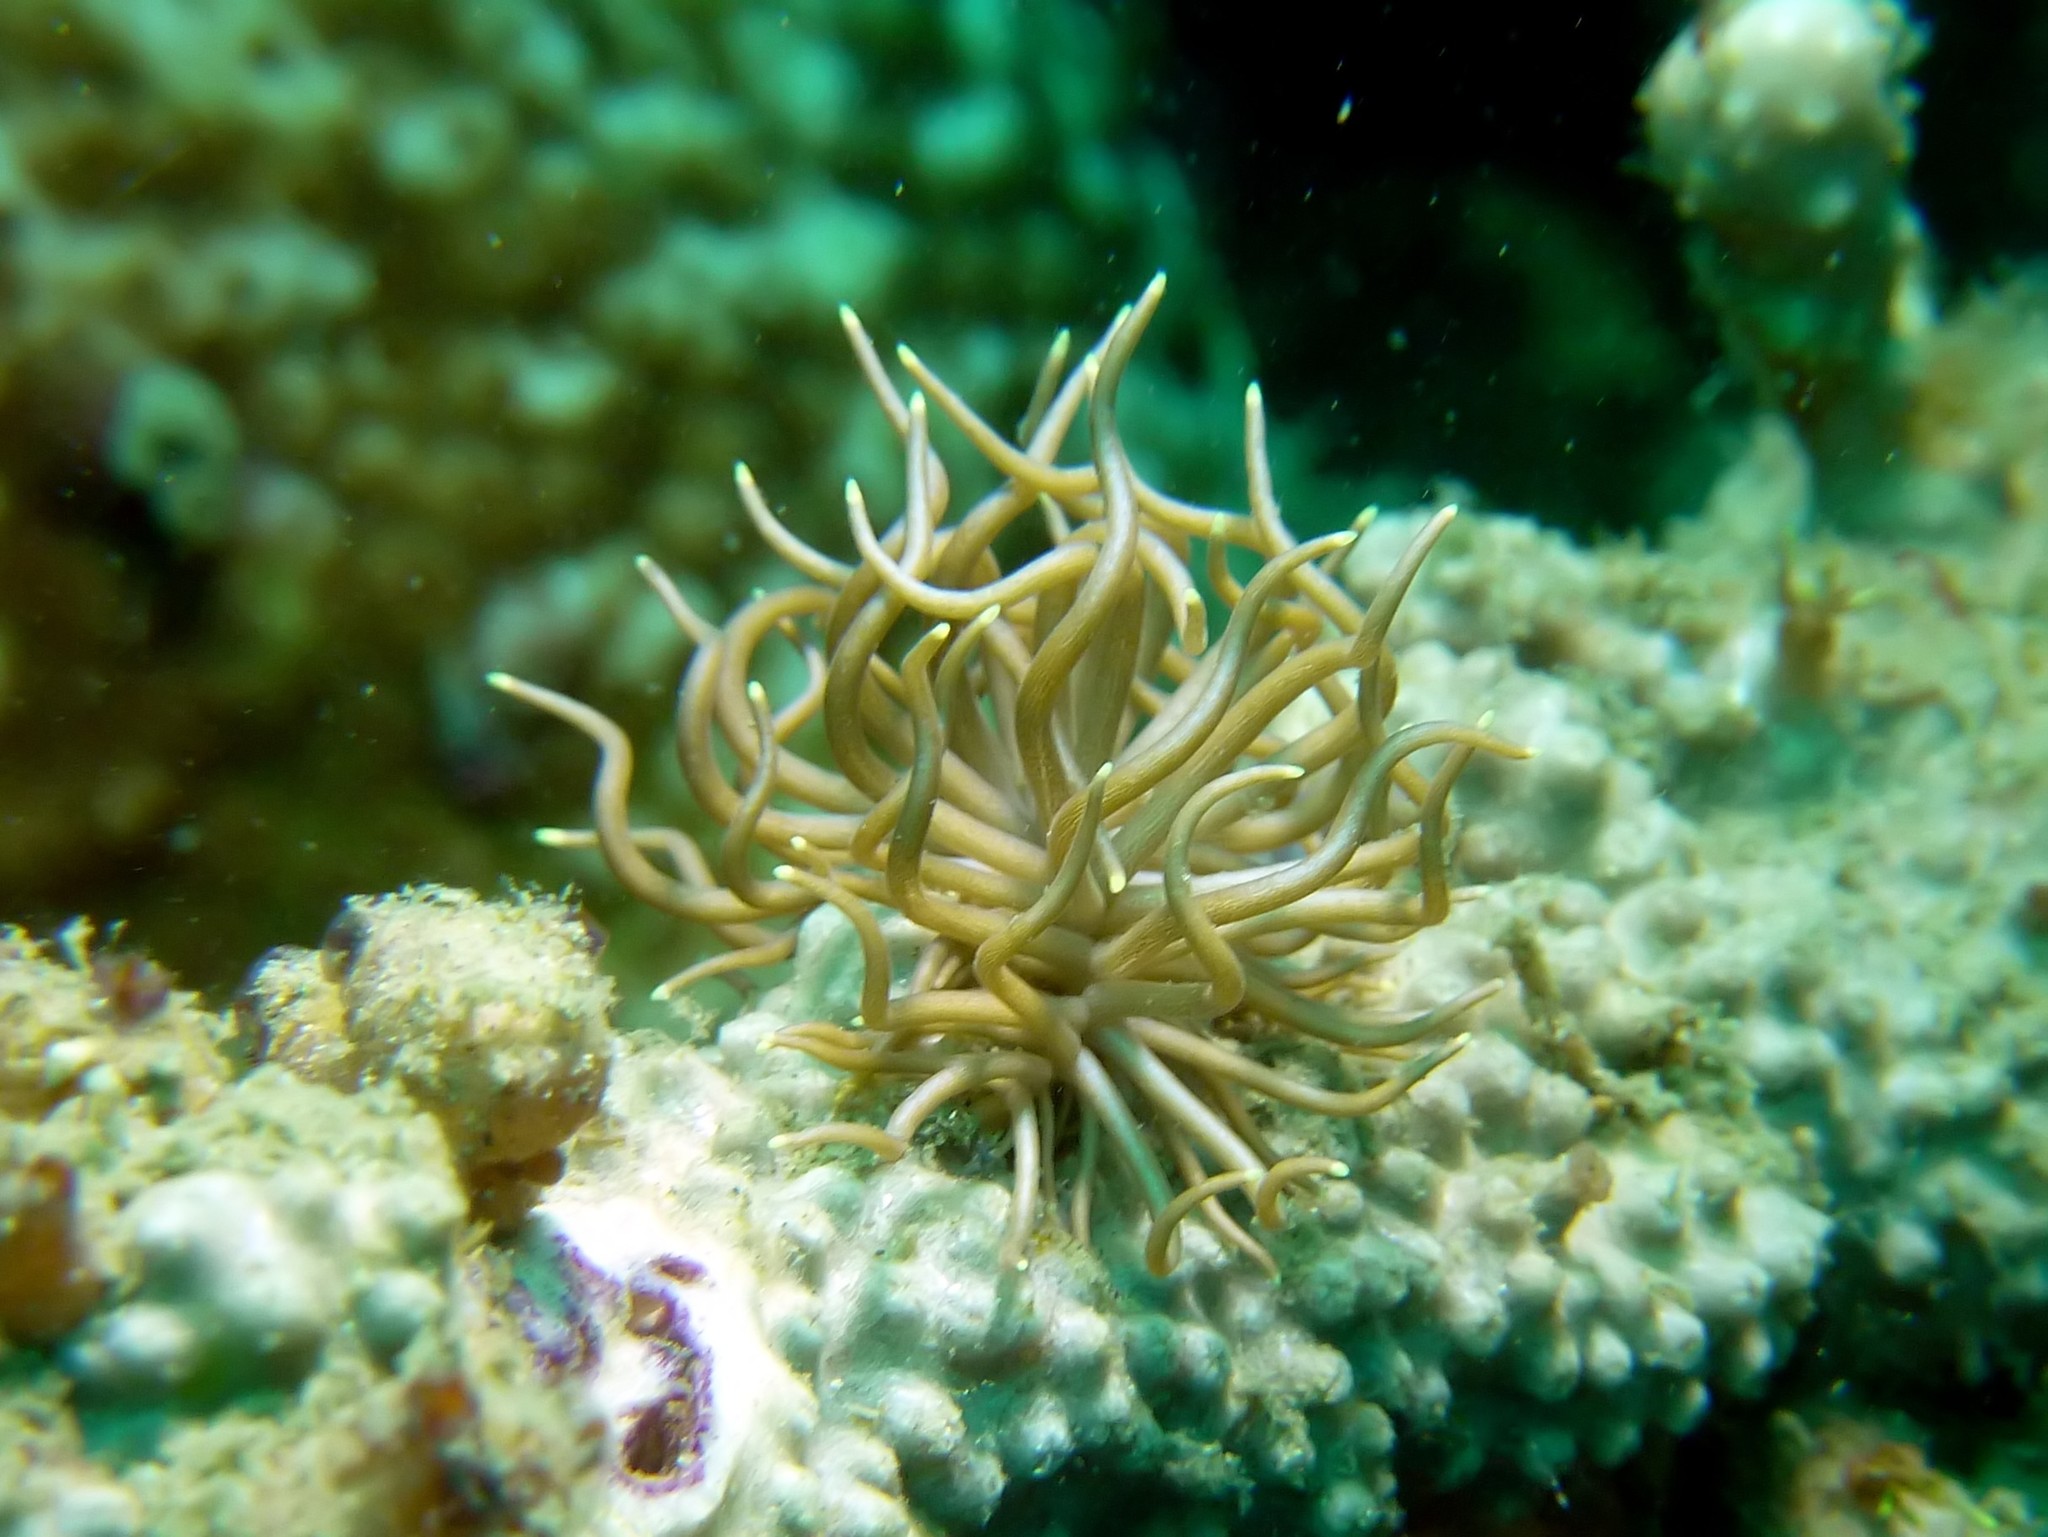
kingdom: Animalia
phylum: Mollusca
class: Gastropoda
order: Nudibranchia
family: Myrrhinidae
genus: Phyllodesmium
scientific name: Phyllodesmium briareum
